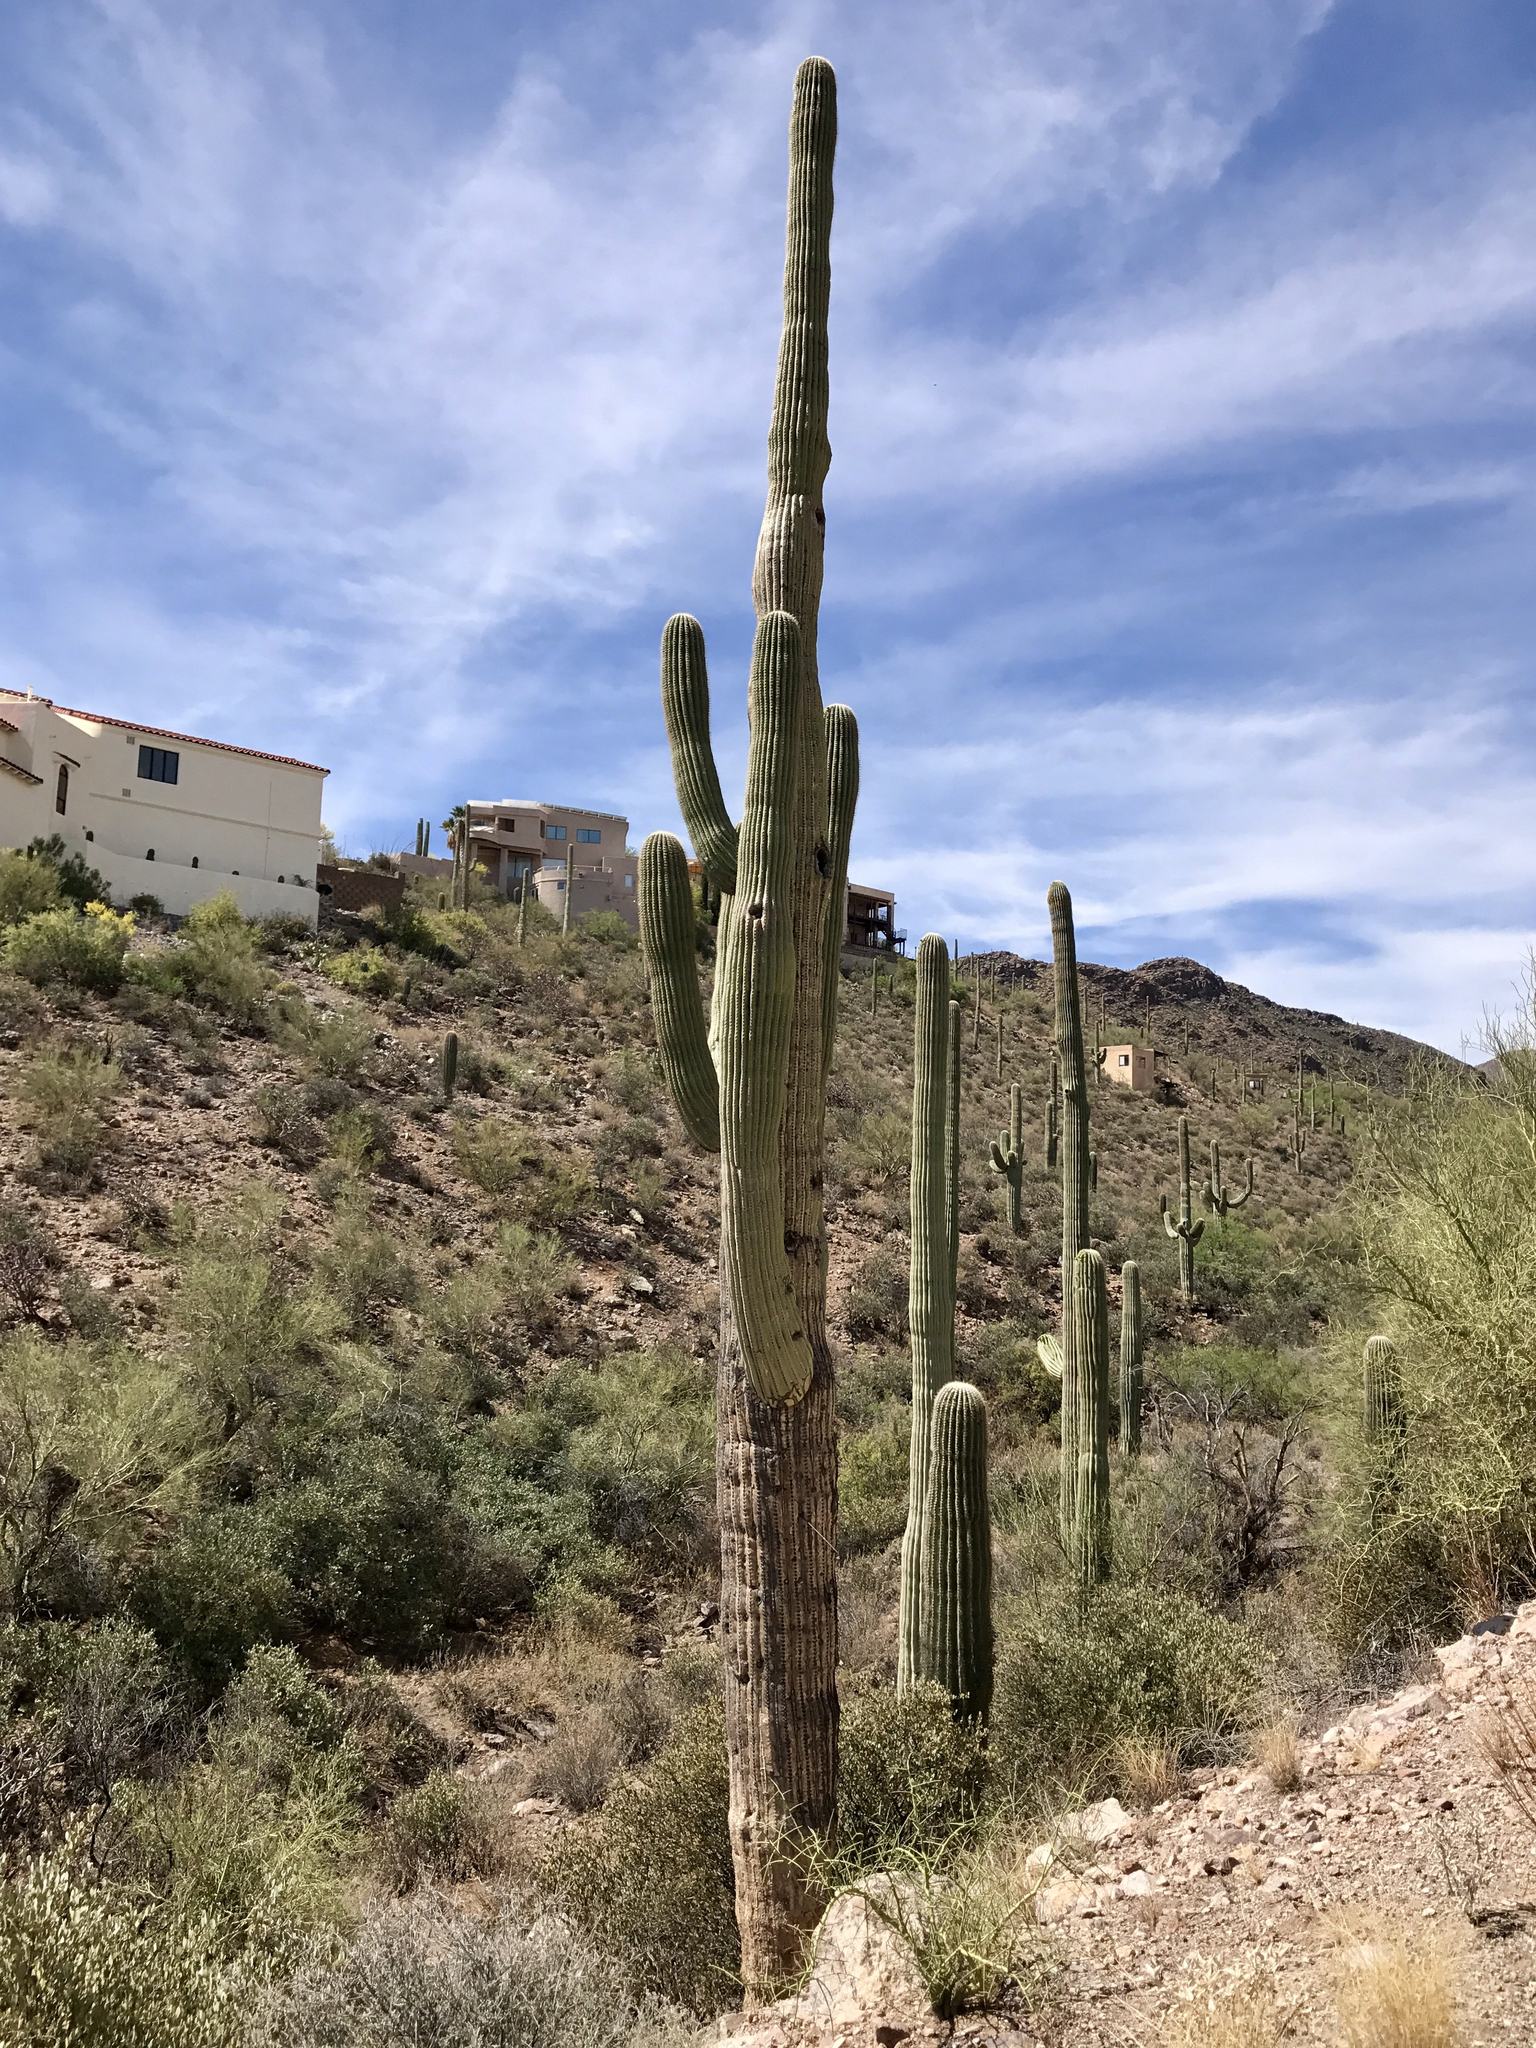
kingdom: Plantae
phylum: Tracheophyta
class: Magnoliopsida
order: Caryophyllales
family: Cactaceae
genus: Carnegiea
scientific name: Carnegiea gigantea
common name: Saguaro
